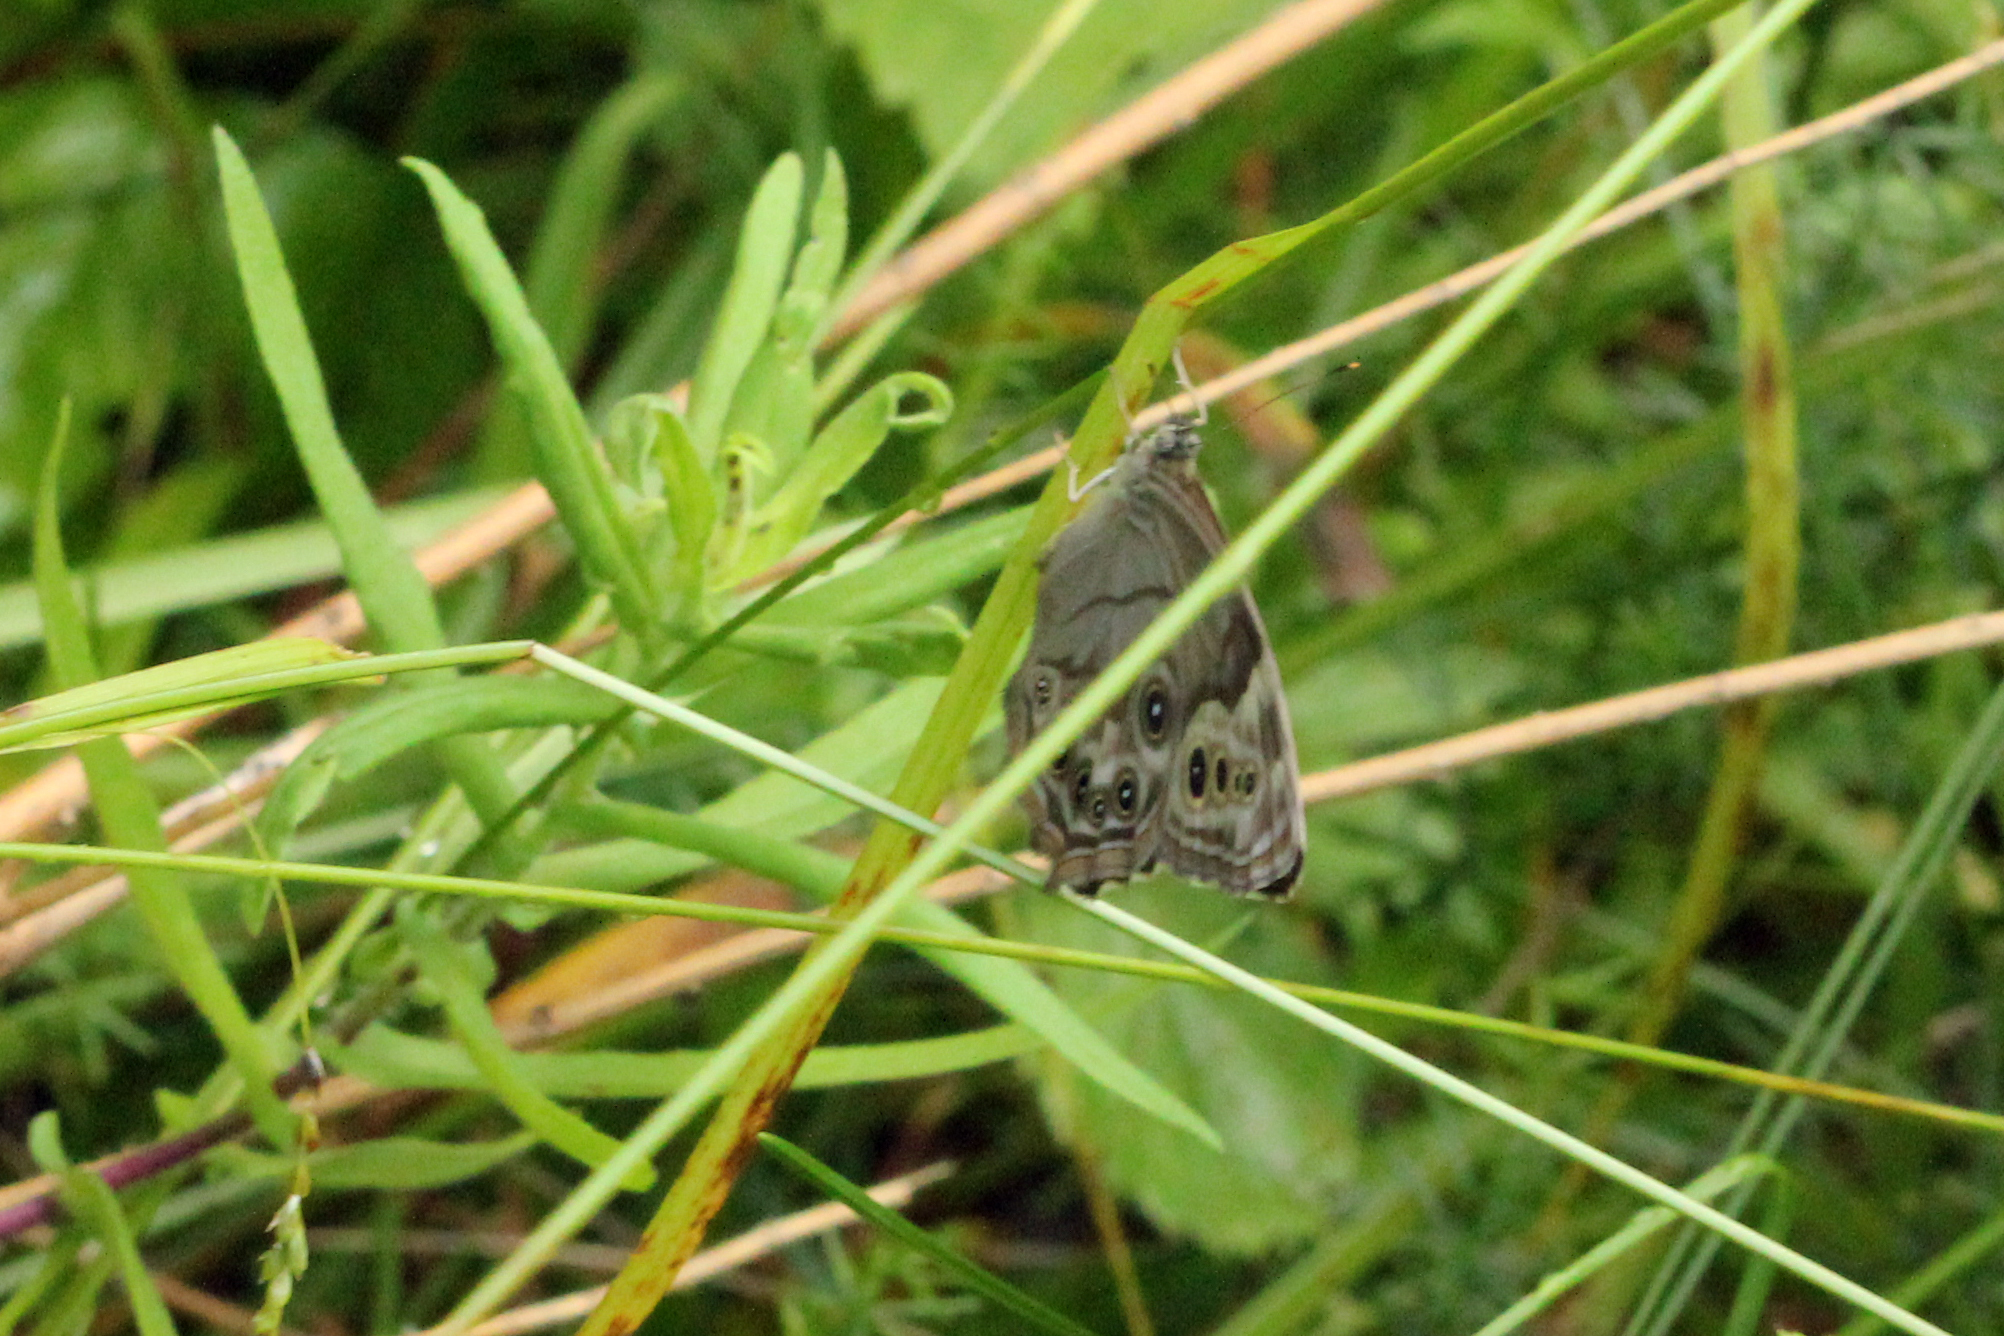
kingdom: Animalia
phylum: Arthropoda
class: Insecta
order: Lepidoptera
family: Nymphalidae
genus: Lethe
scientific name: Lethe anthedon
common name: Northern pearly-eye
